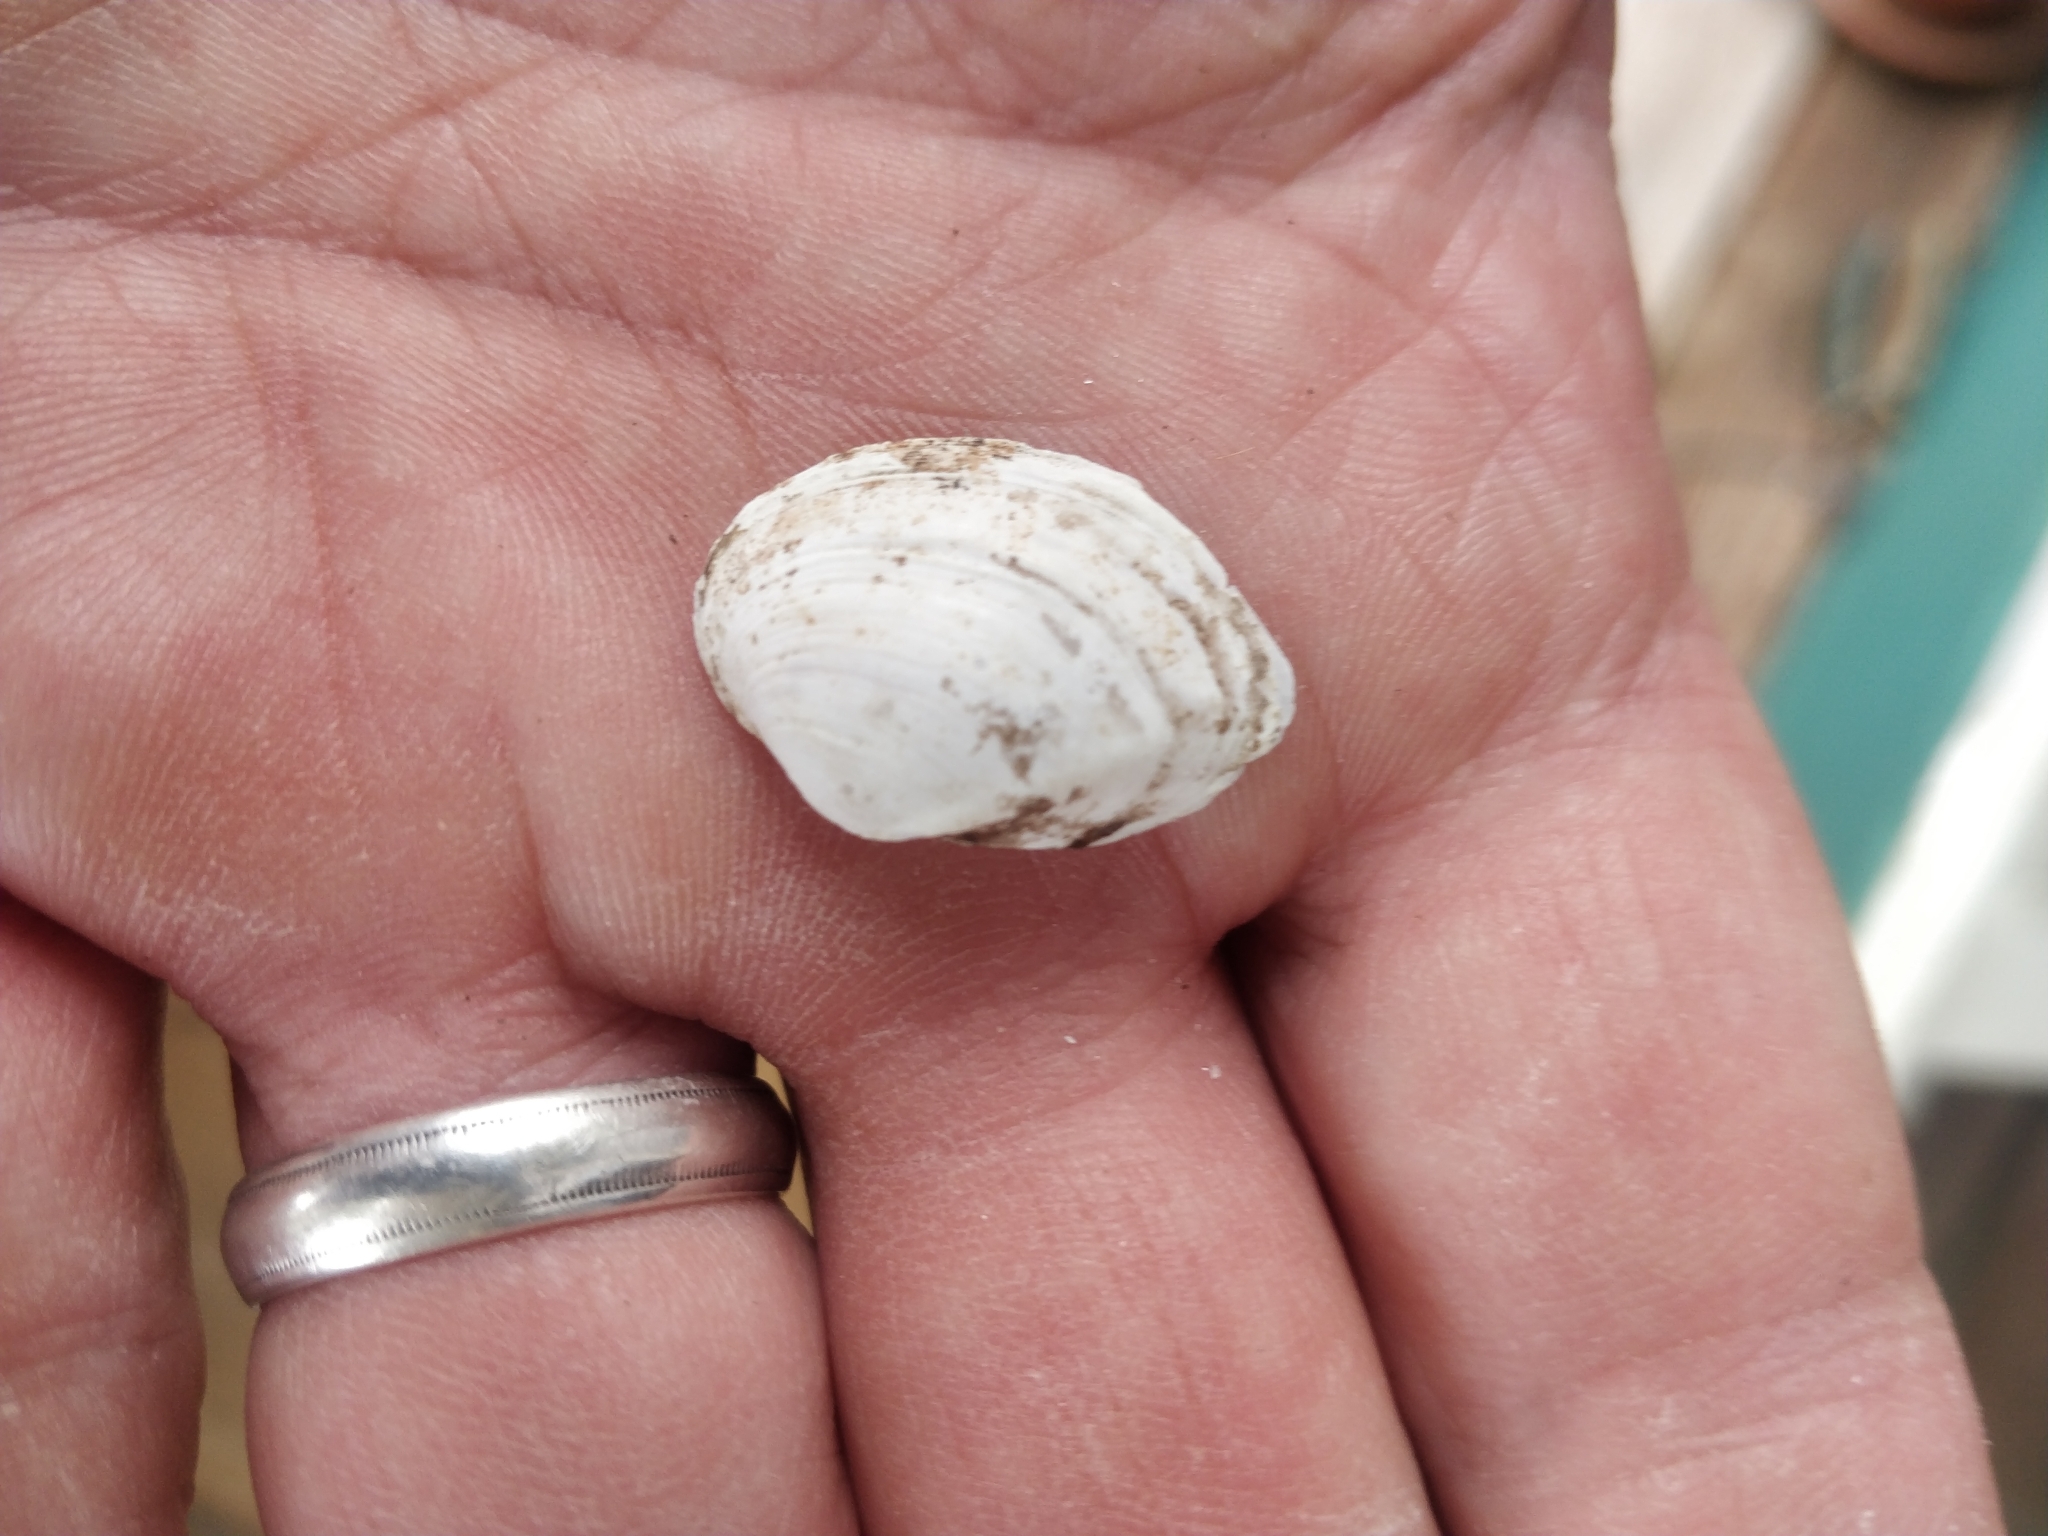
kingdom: Animalia
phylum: Mollusca
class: Bivalvia
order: Unionida
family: Unionidae
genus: Truncilla
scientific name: Truncilla donaciformis
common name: Fawnsfoot
